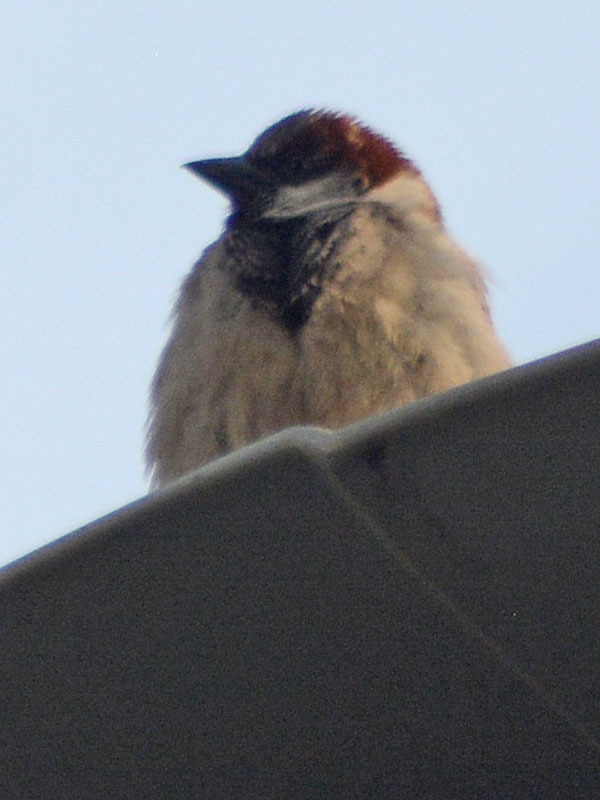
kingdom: Animalia
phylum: Chordata
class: Aves
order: Passeriformes
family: Passeridae
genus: Passer
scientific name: Passer domesticus
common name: House sparrow
